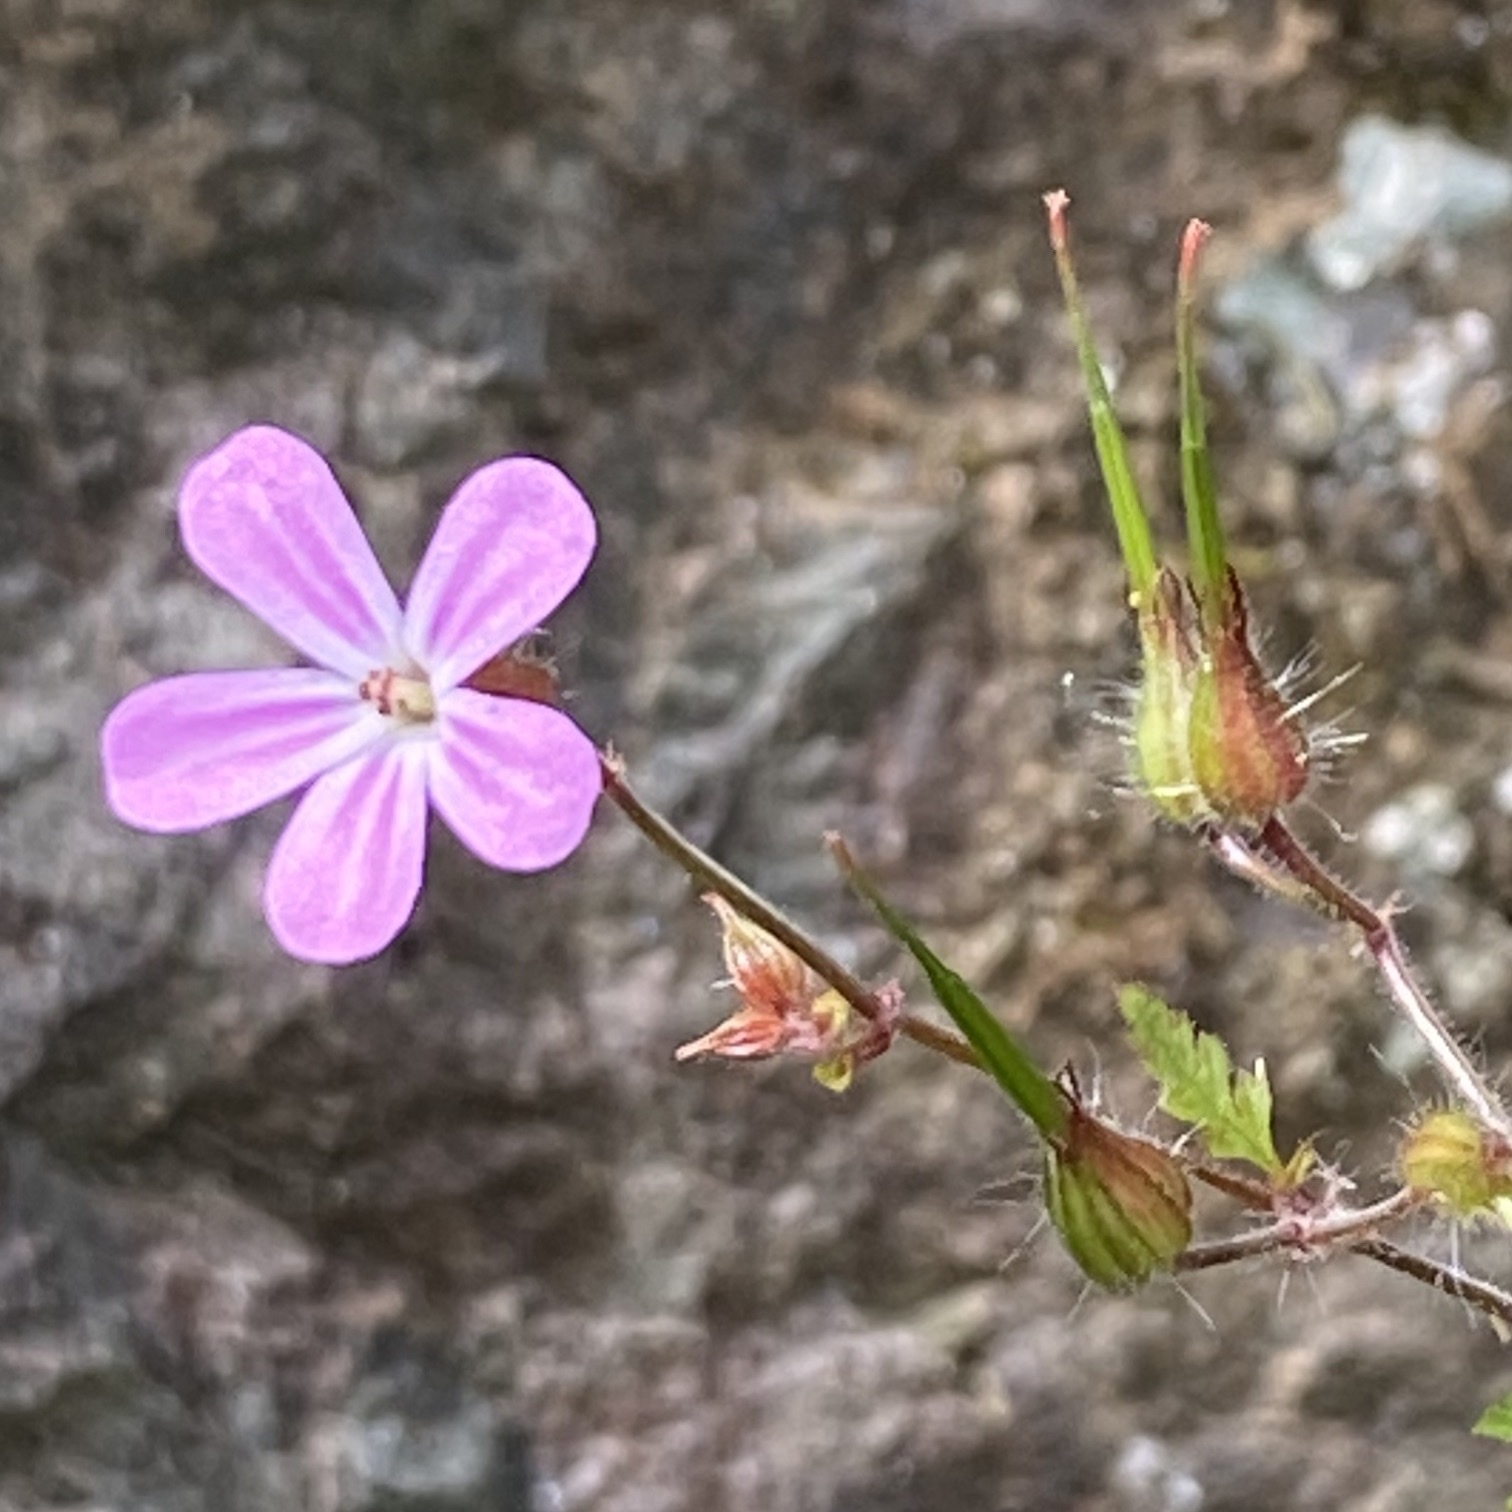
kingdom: Plantae
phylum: Tracheophyta
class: Magnoliopsida
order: Geraniales
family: Geraniaceae
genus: Geranium
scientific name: Geranium robertianum
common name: Herb-robert
